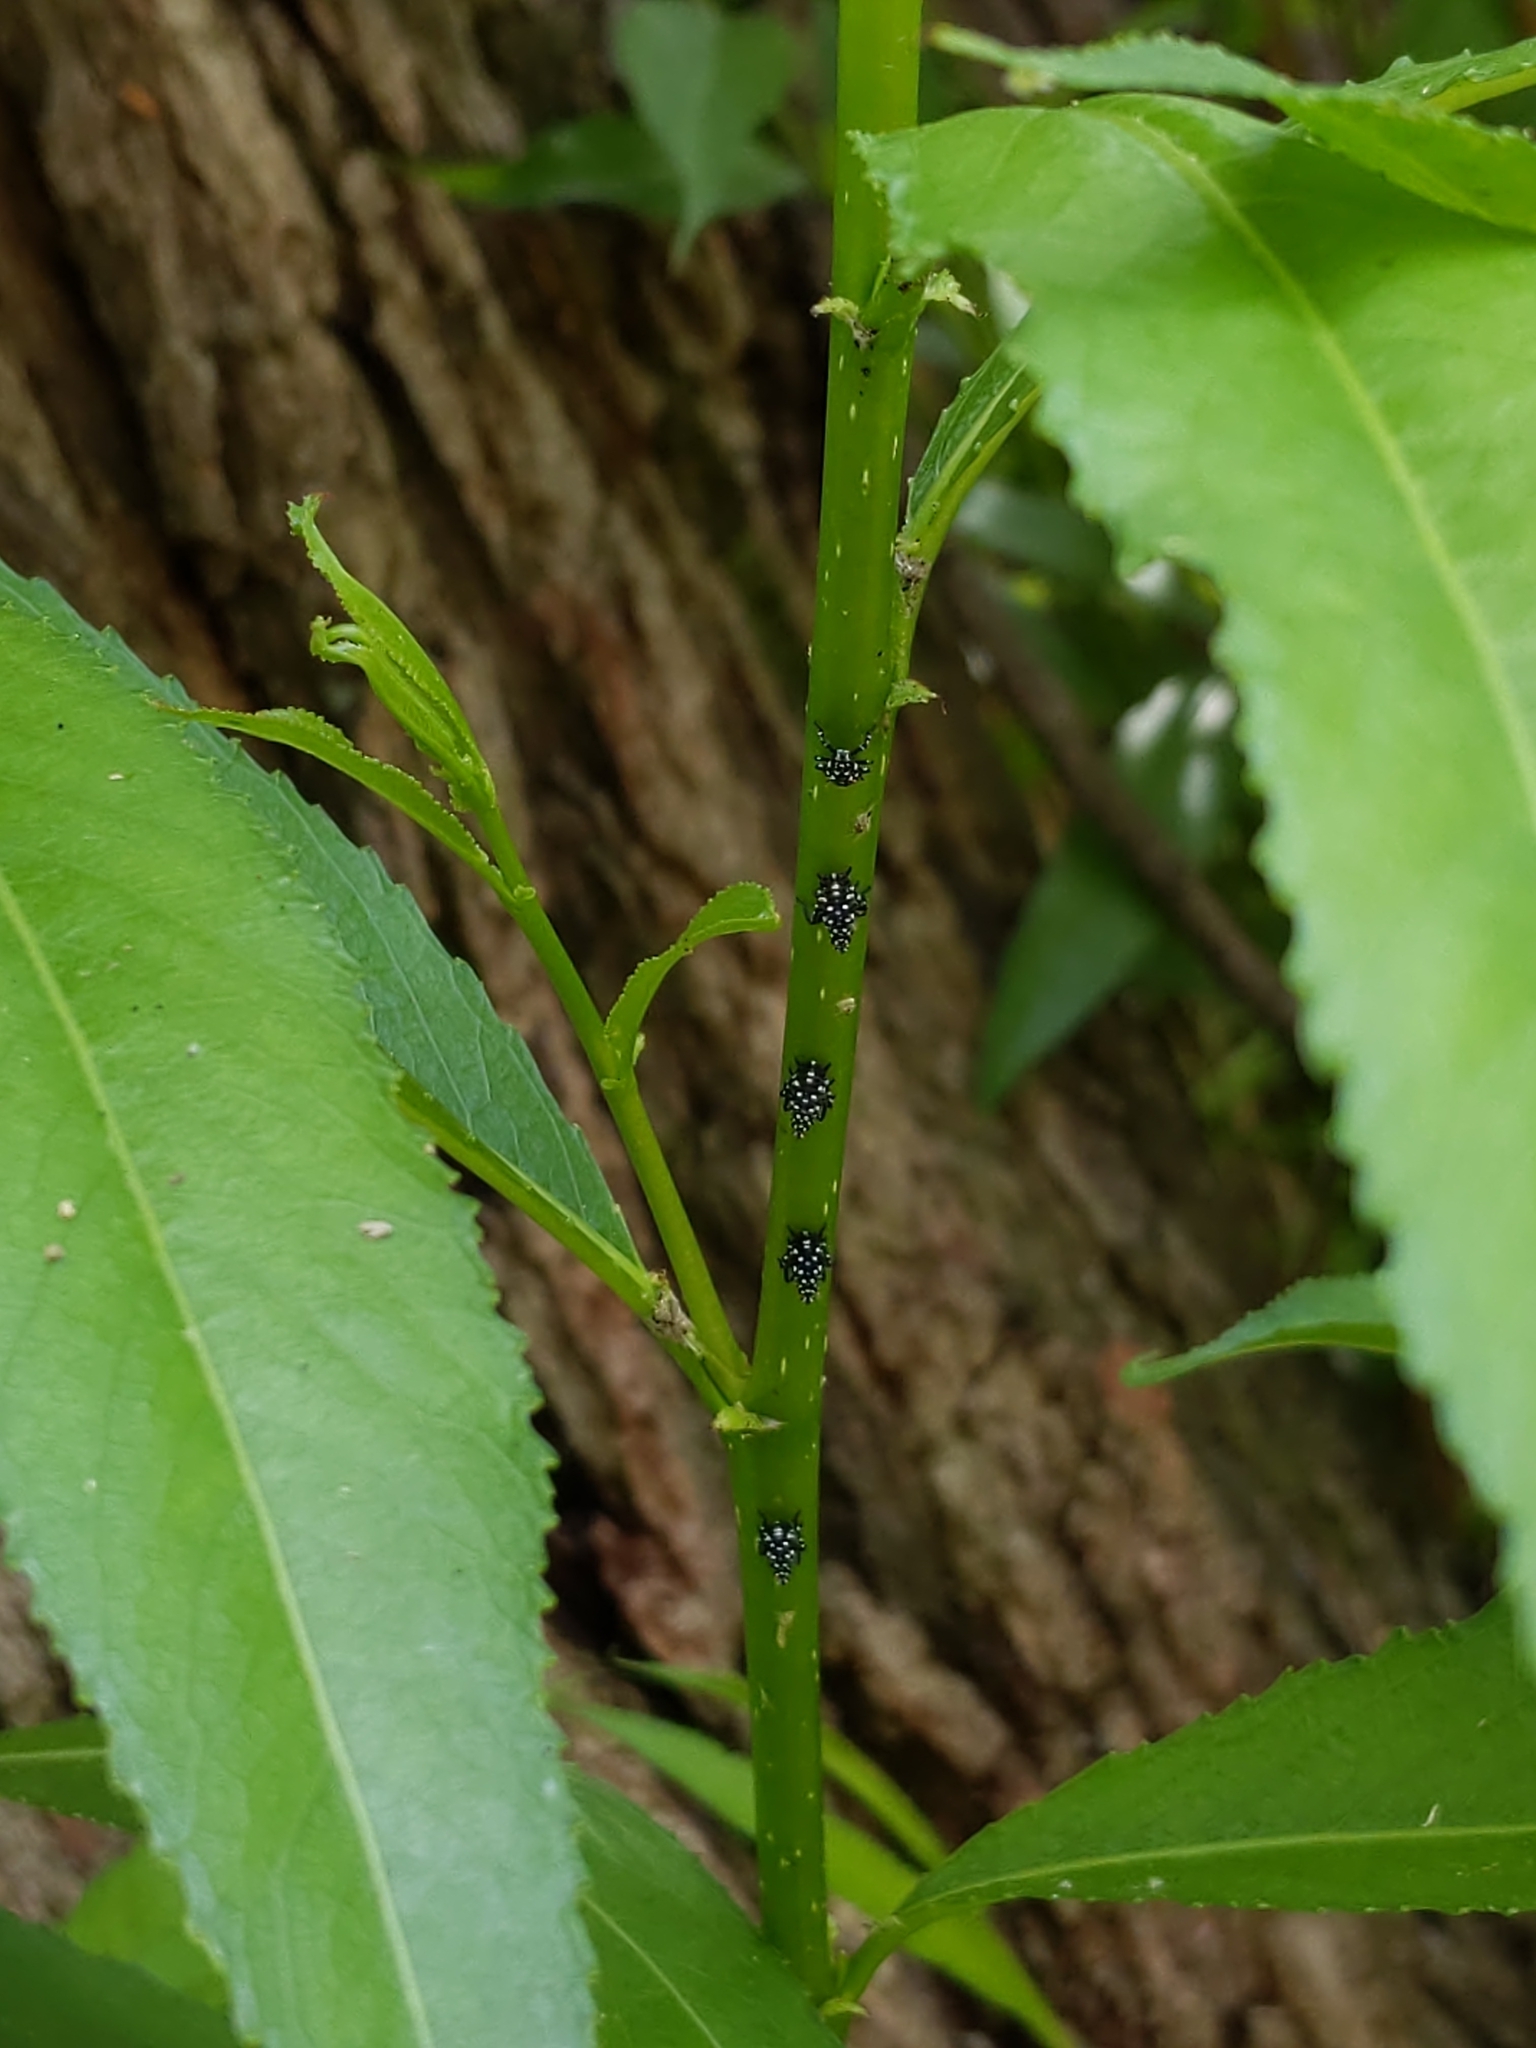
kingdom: Animalia
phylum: Arthropoda
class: Insecta
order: Hemiptera
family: Fulgoridae
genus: Lycorma
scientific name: Lycorma delicatula
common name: Spotted lanternfly
